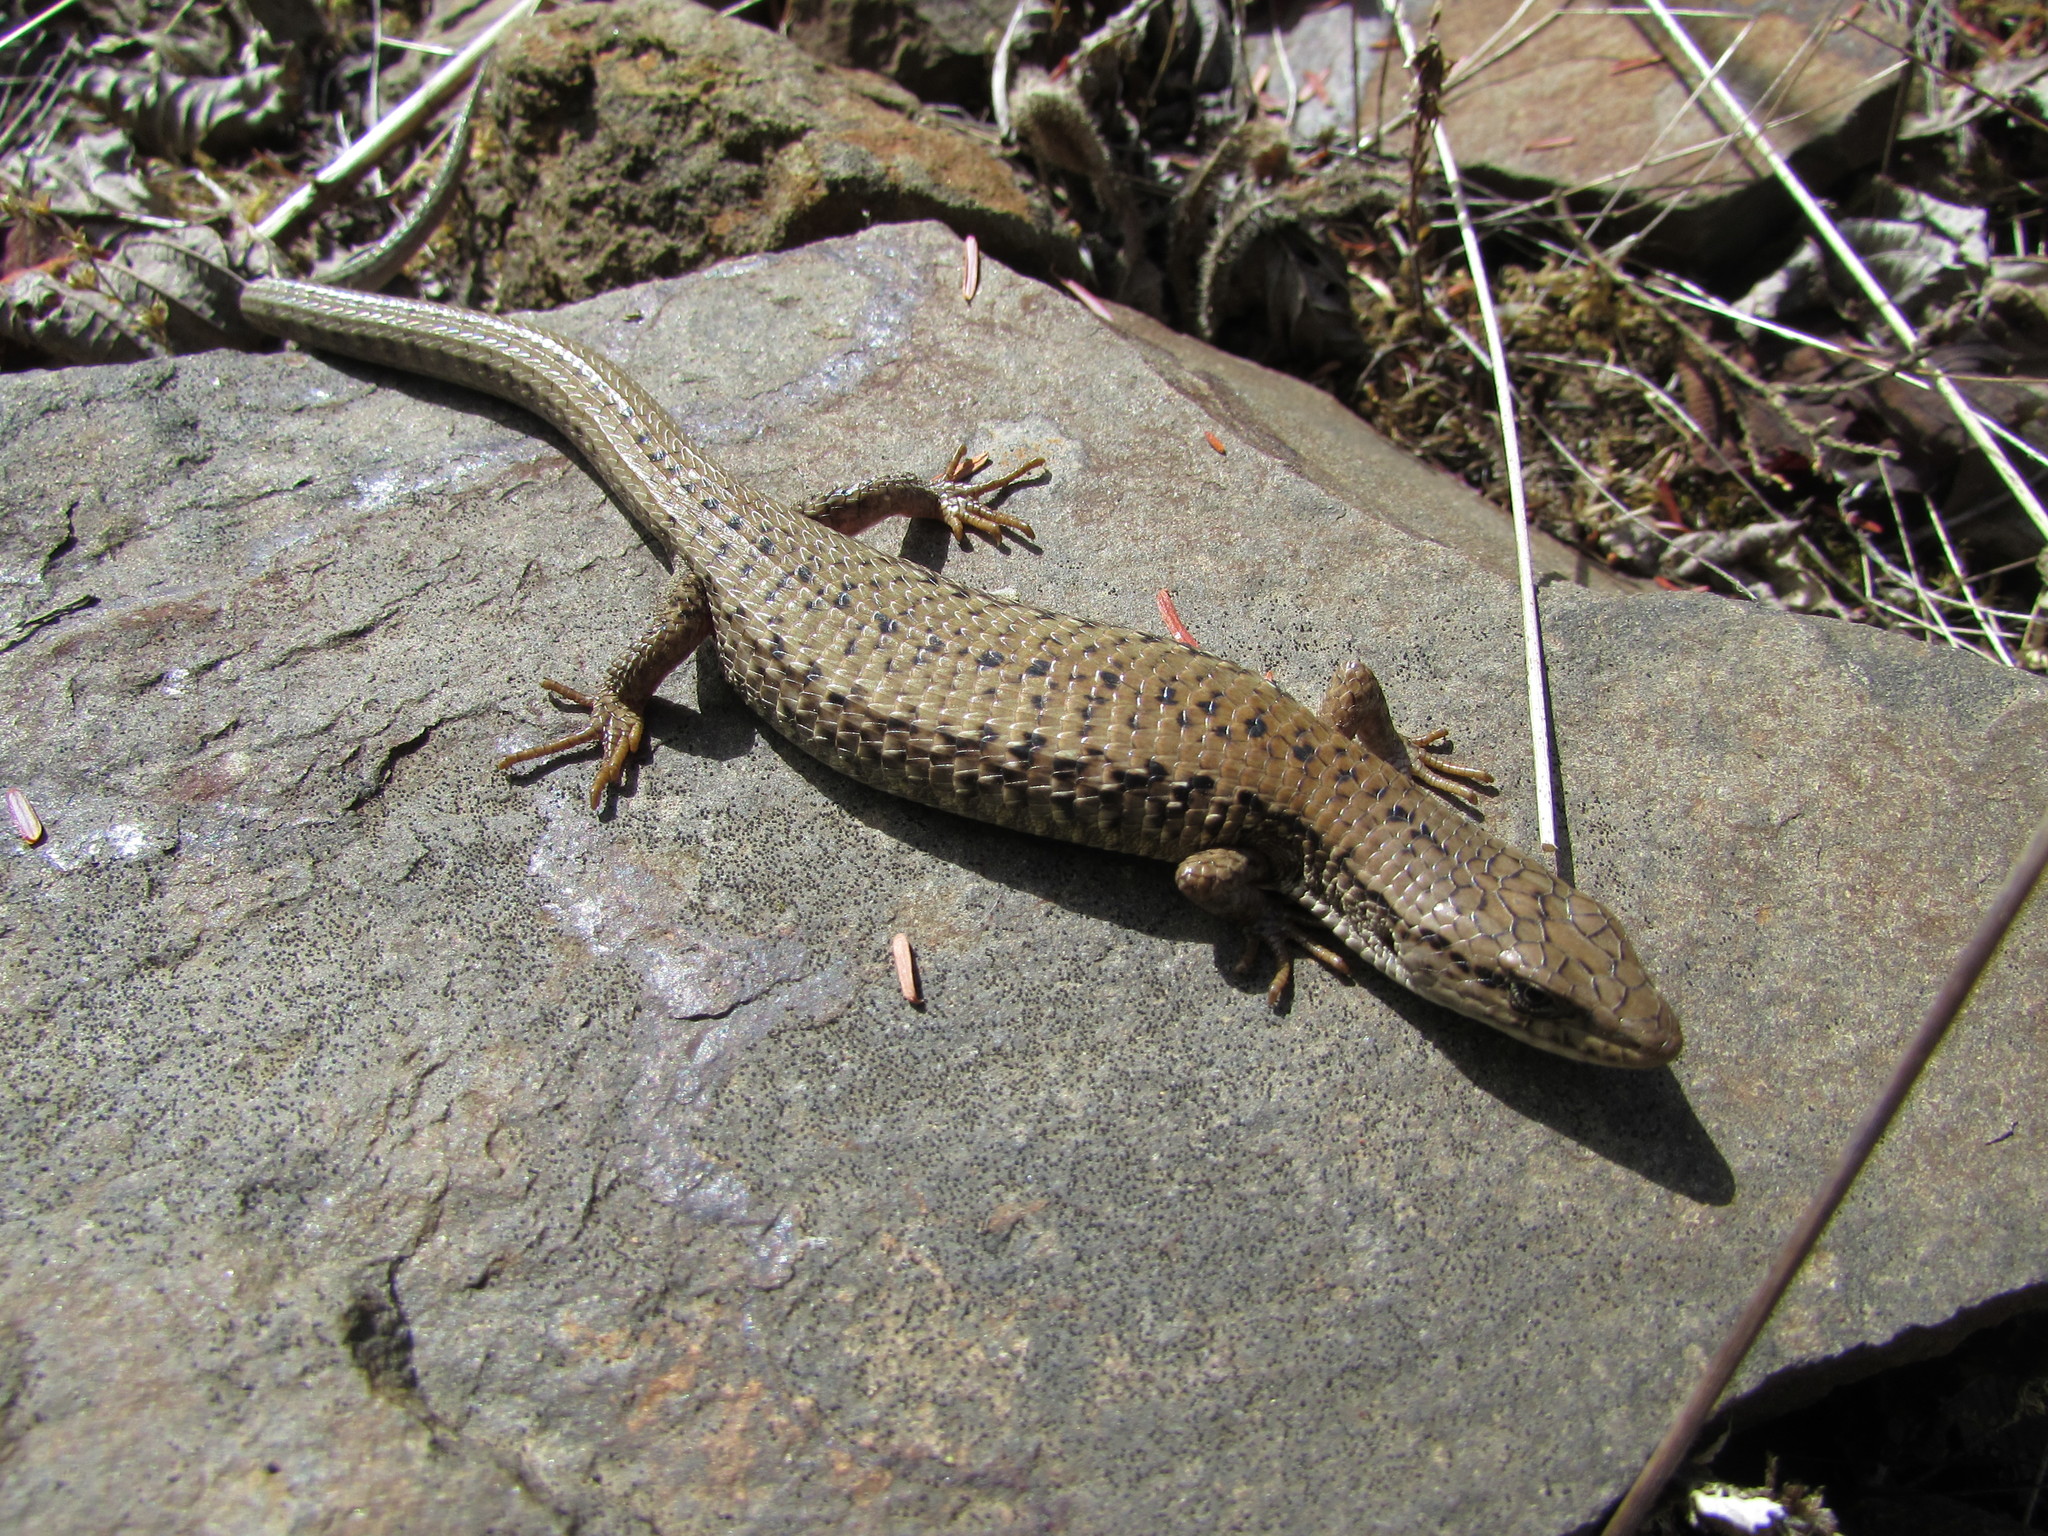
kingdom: Animalia
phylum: Chordata
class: Squamata
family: Anguidae
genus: Elgaria
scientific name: Elgaria coerulea
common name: Northern alligator lizard
